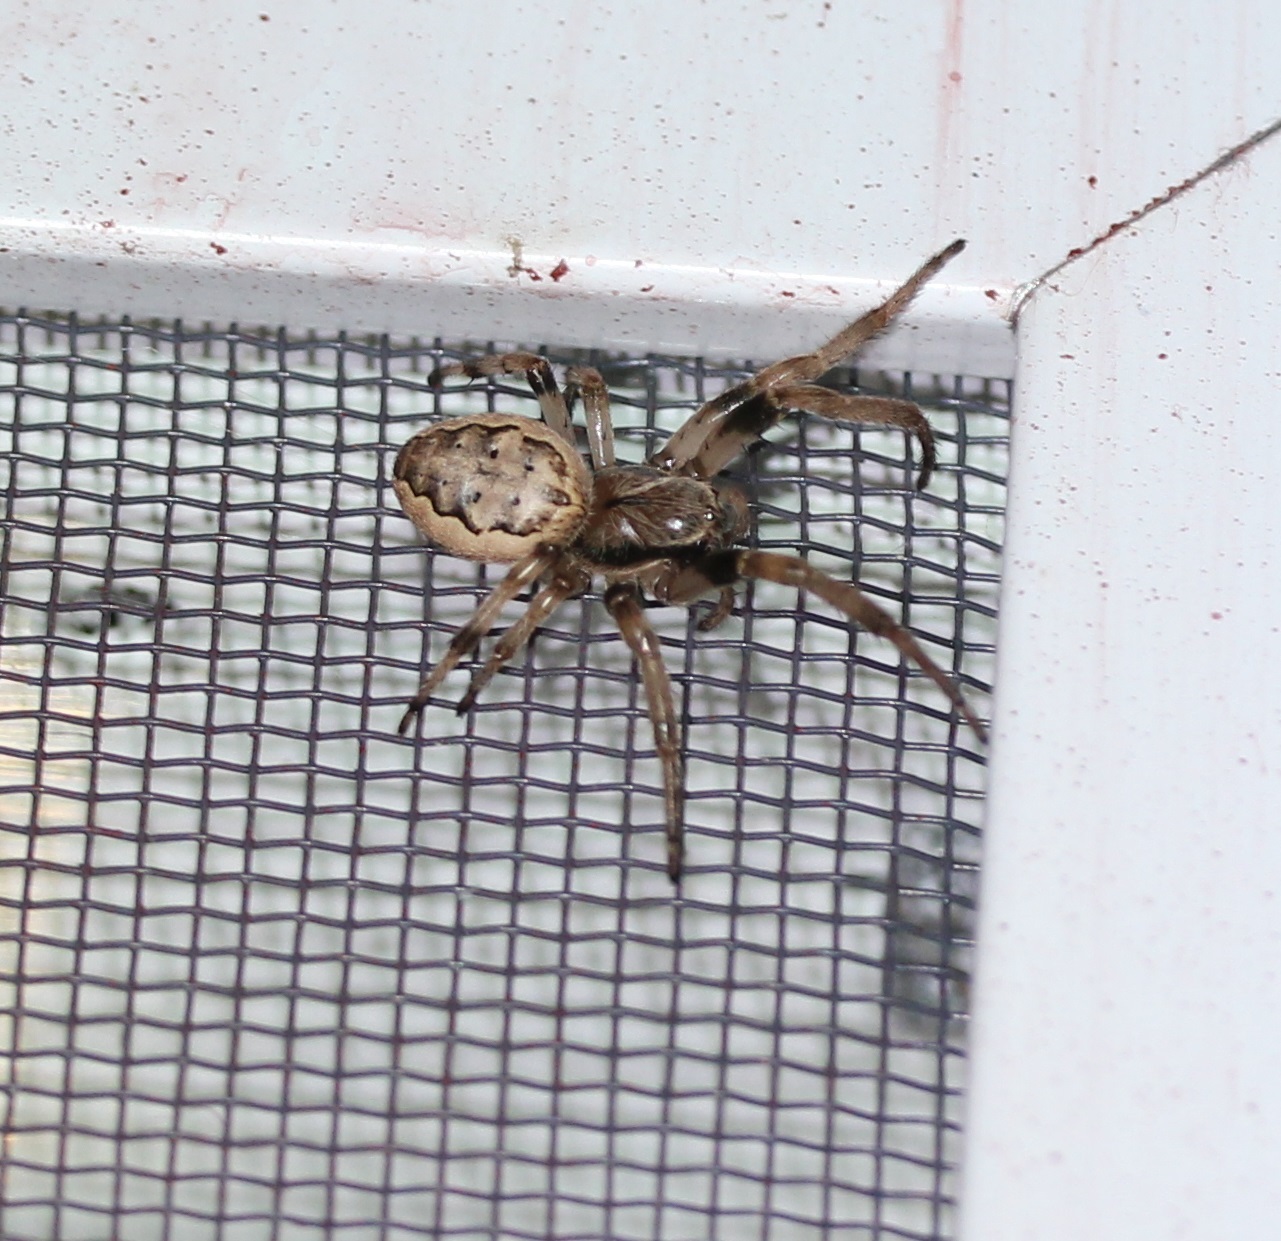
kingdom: Animalia
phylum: Arthropoda
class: Arachnida
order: Araneae
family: Araneidae
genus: Larinioides
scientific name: Larinioides cornutus
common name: Furrow orbweaver
